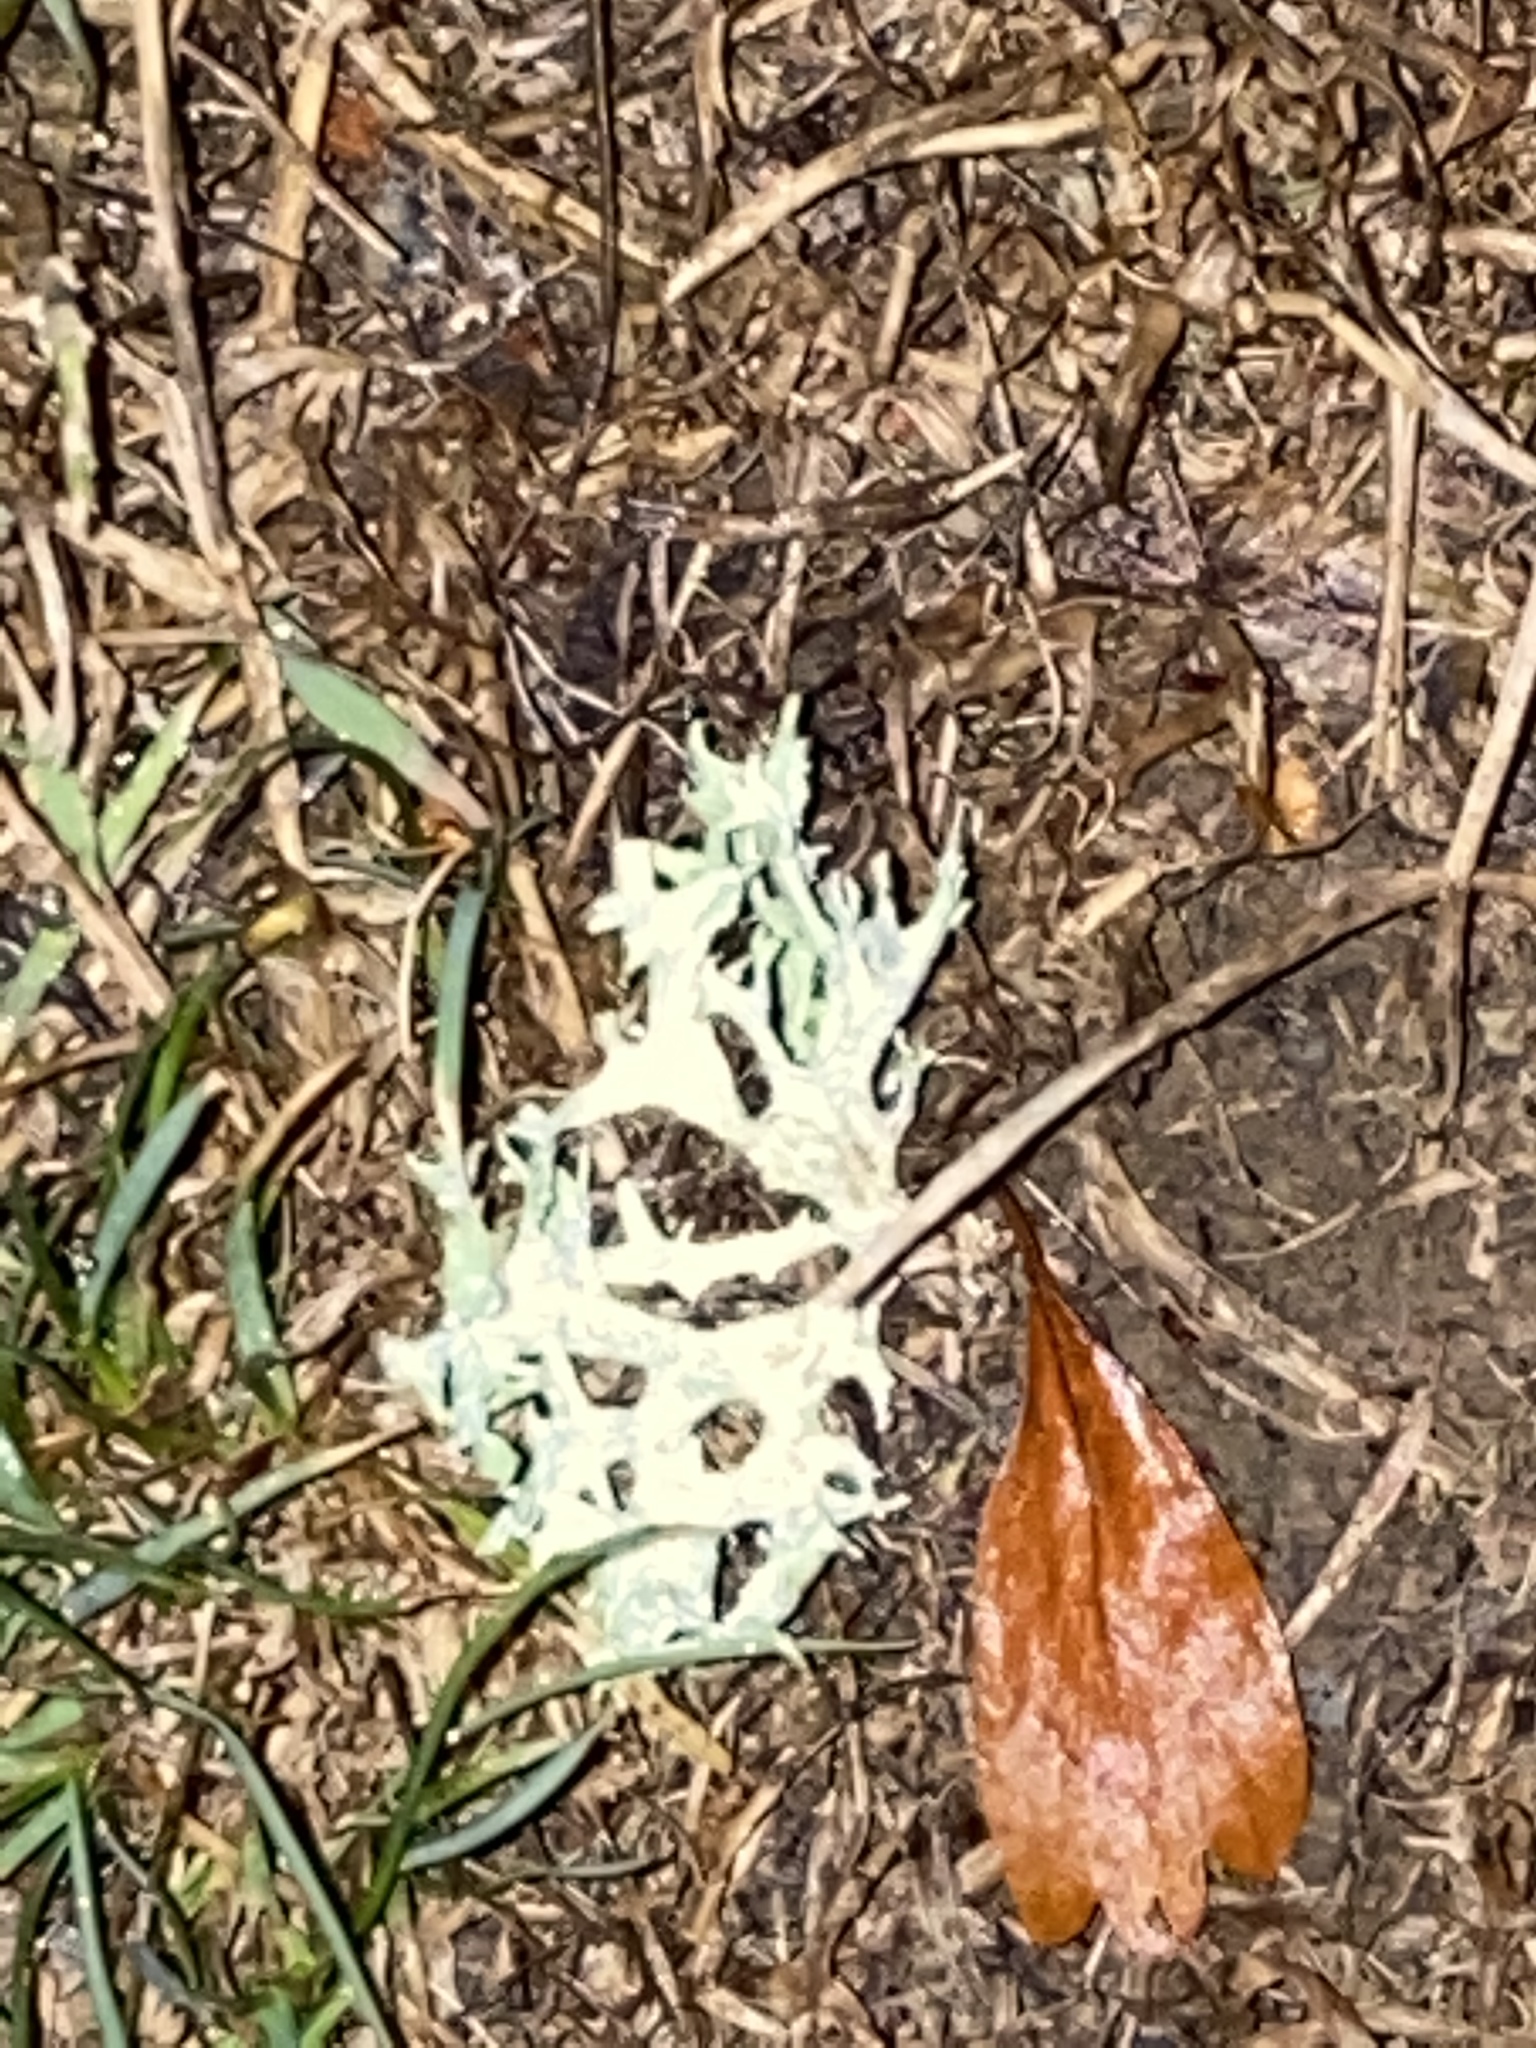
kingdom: Fungi
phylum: Ascomycota
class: Lecanoromycetes
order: Lecanorales
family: Parmeliaceae
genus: Evernia
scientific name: Evernia prunastri
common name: Oak moss
